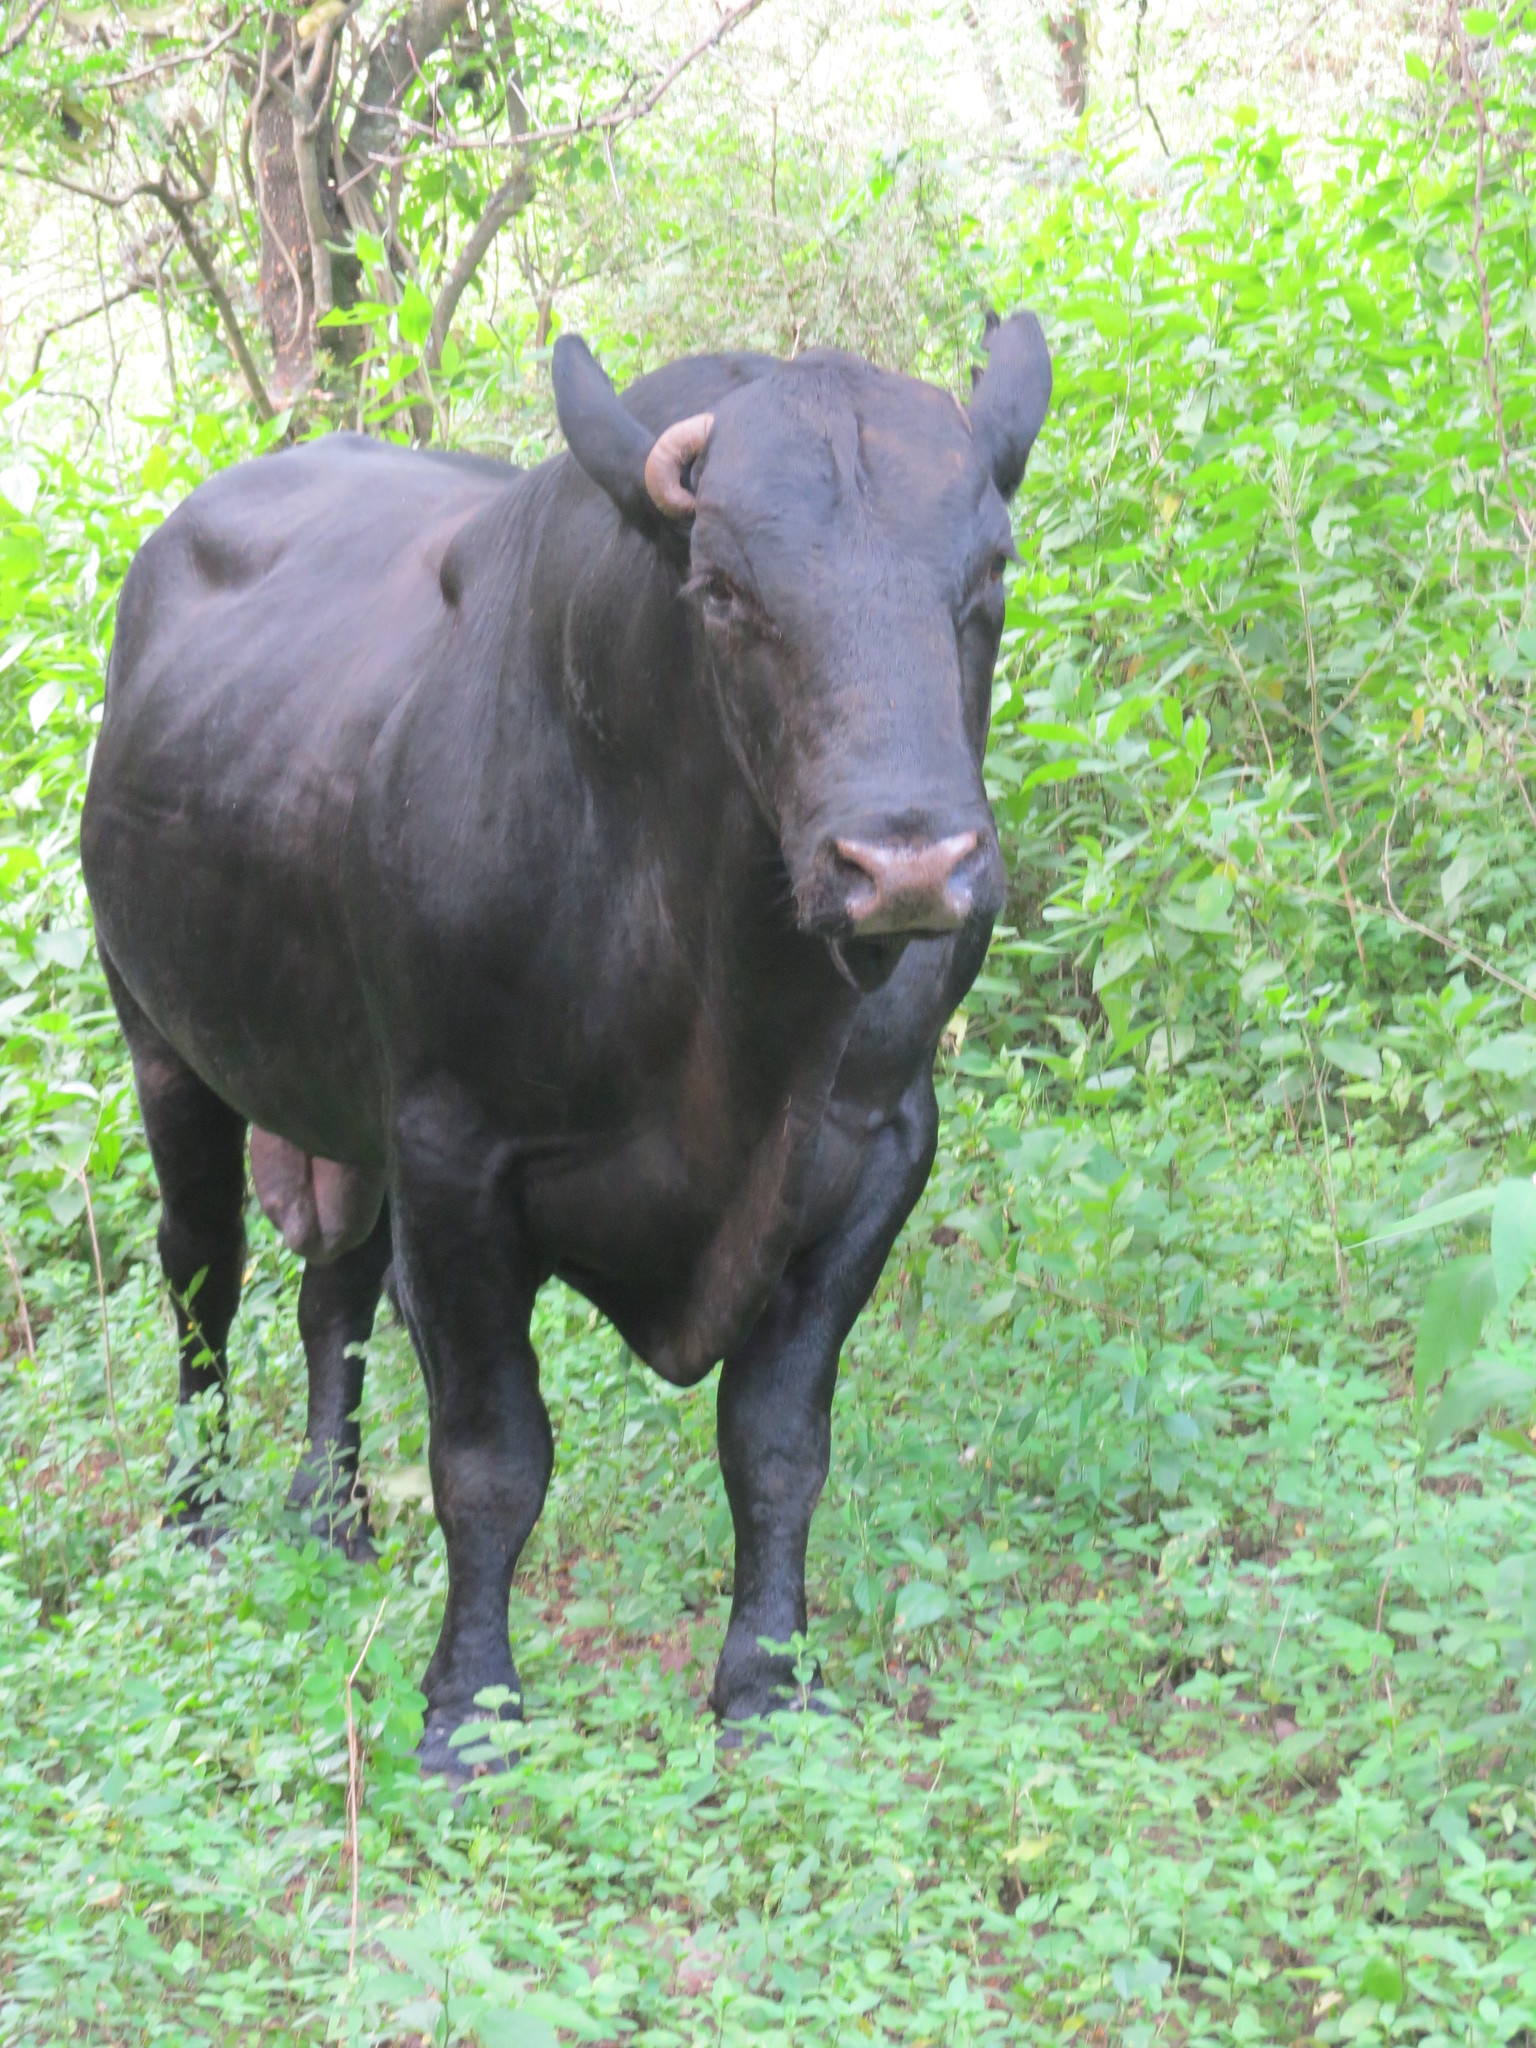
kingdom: Animalia
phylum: Chordata
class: Mammalia
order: Artiodactyla
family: Bovidae
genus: Bos
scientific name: Bos taurus
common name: Domesticated cattle
